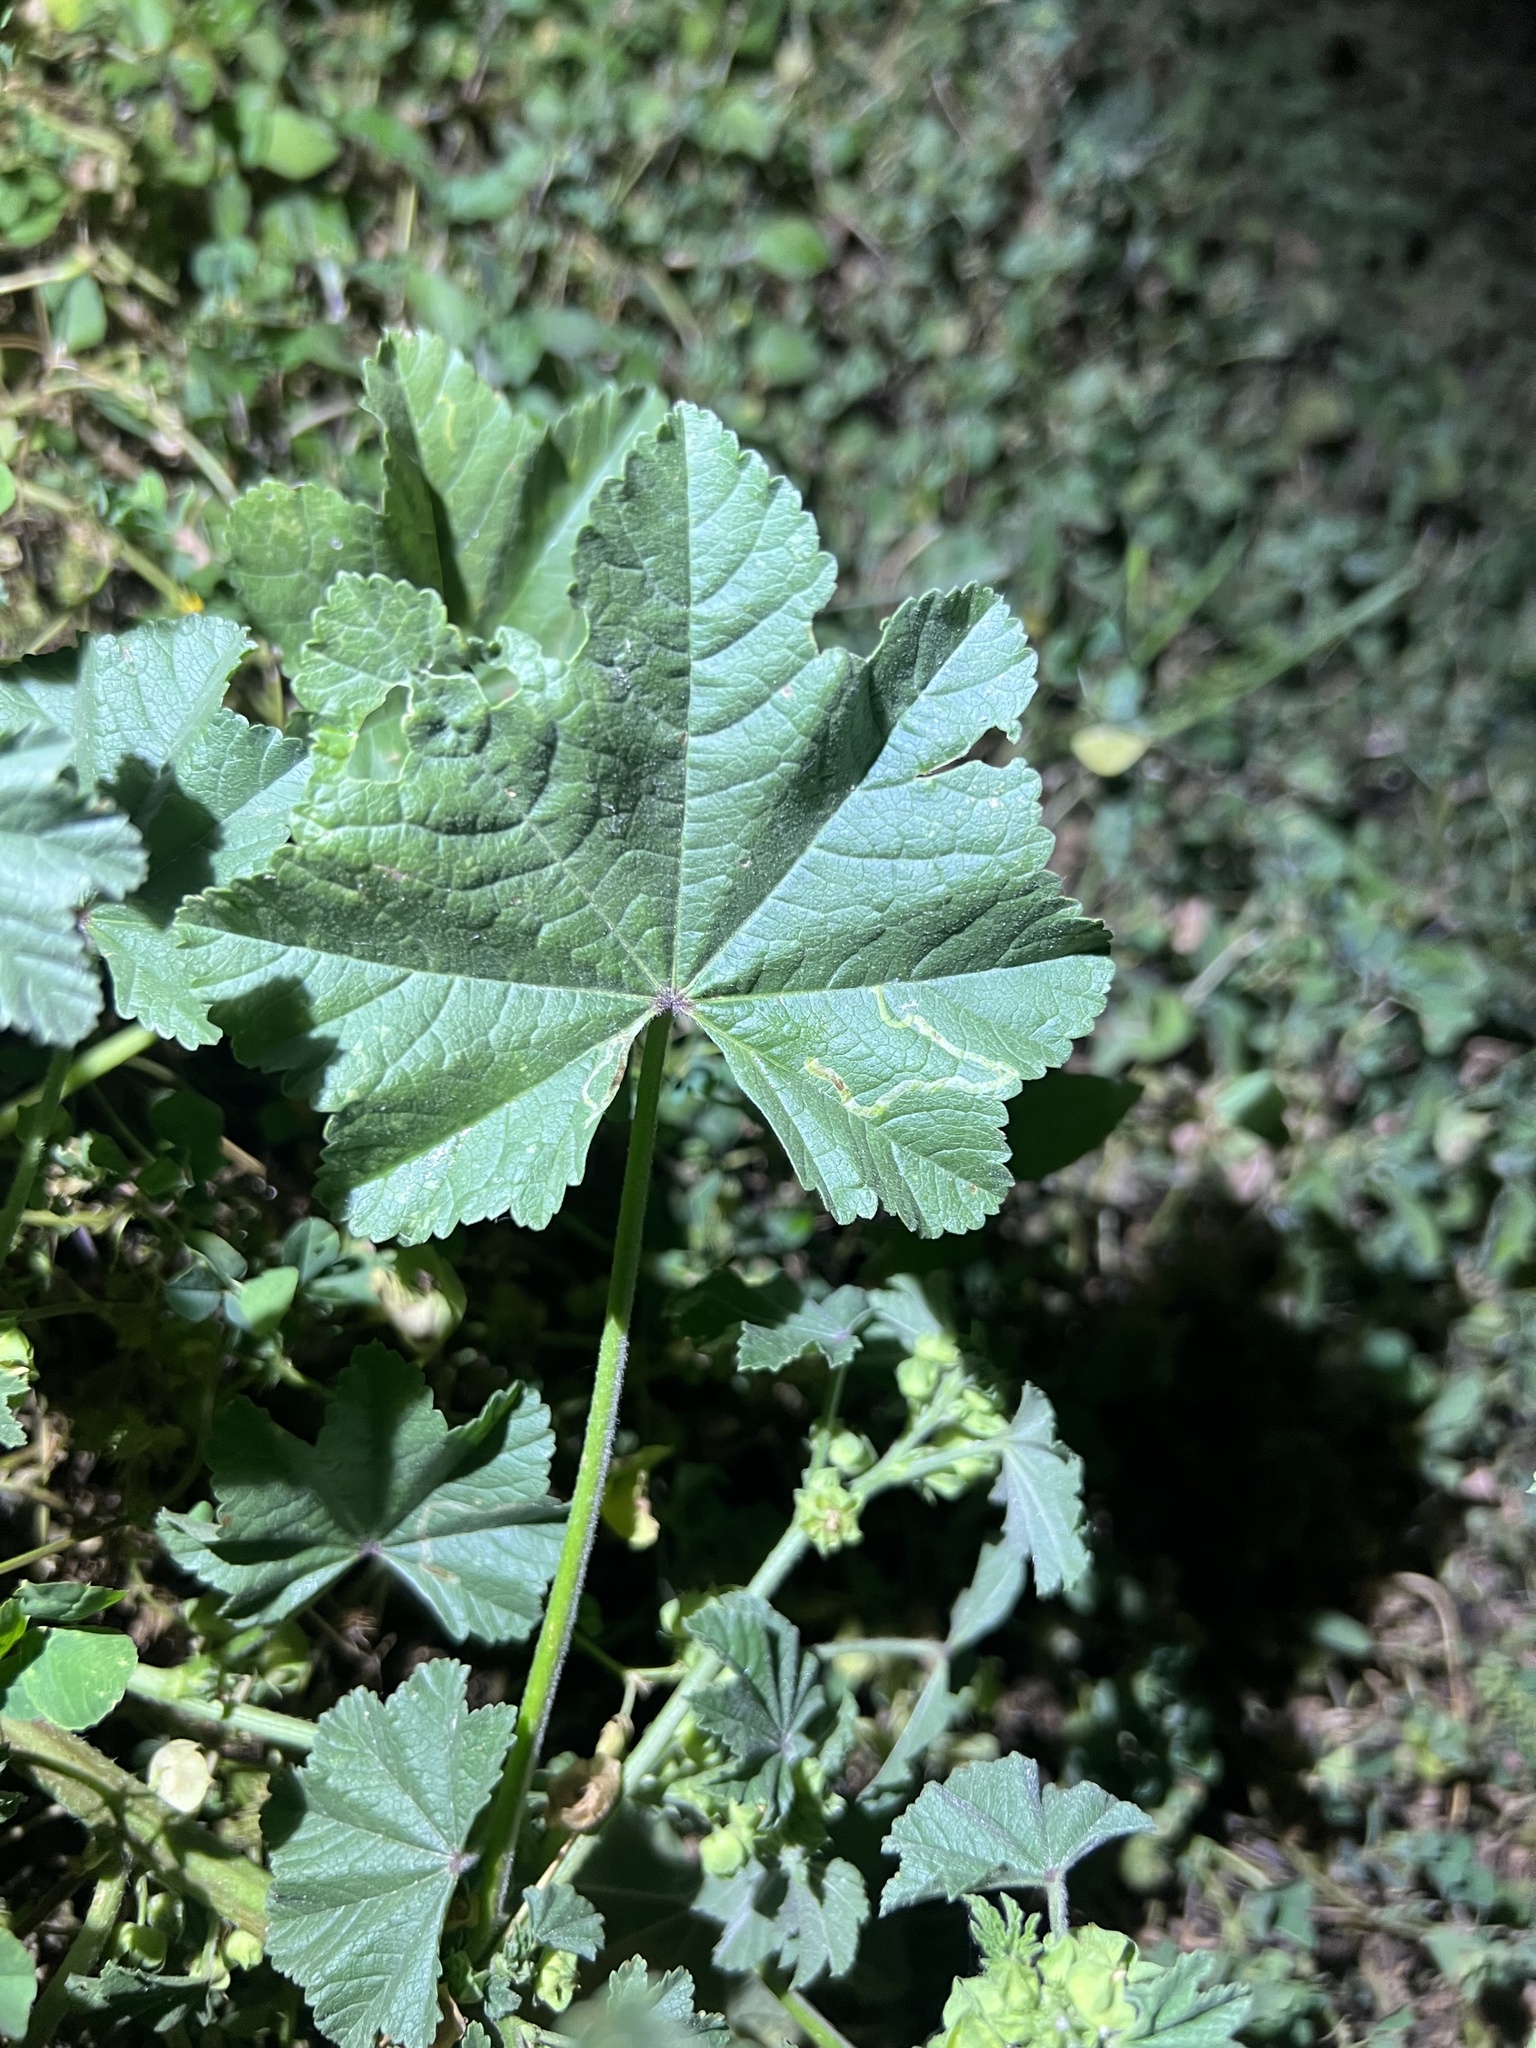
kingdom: Animalia
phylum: Arthropoda
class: Insecta
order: Diptera
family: Agromyzidae
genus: Calycomyza
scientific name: Calycomyza malvae
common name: Mallow leaf miner
